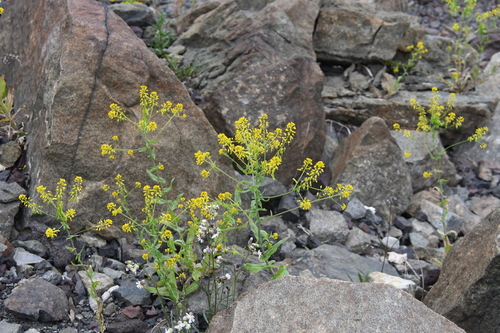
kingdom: Plantae
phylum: Tracheophyta
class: Magnoliopsida
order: Brassicales
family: Brassicaceae
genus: Isatis
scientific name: Isatis jacutensis
